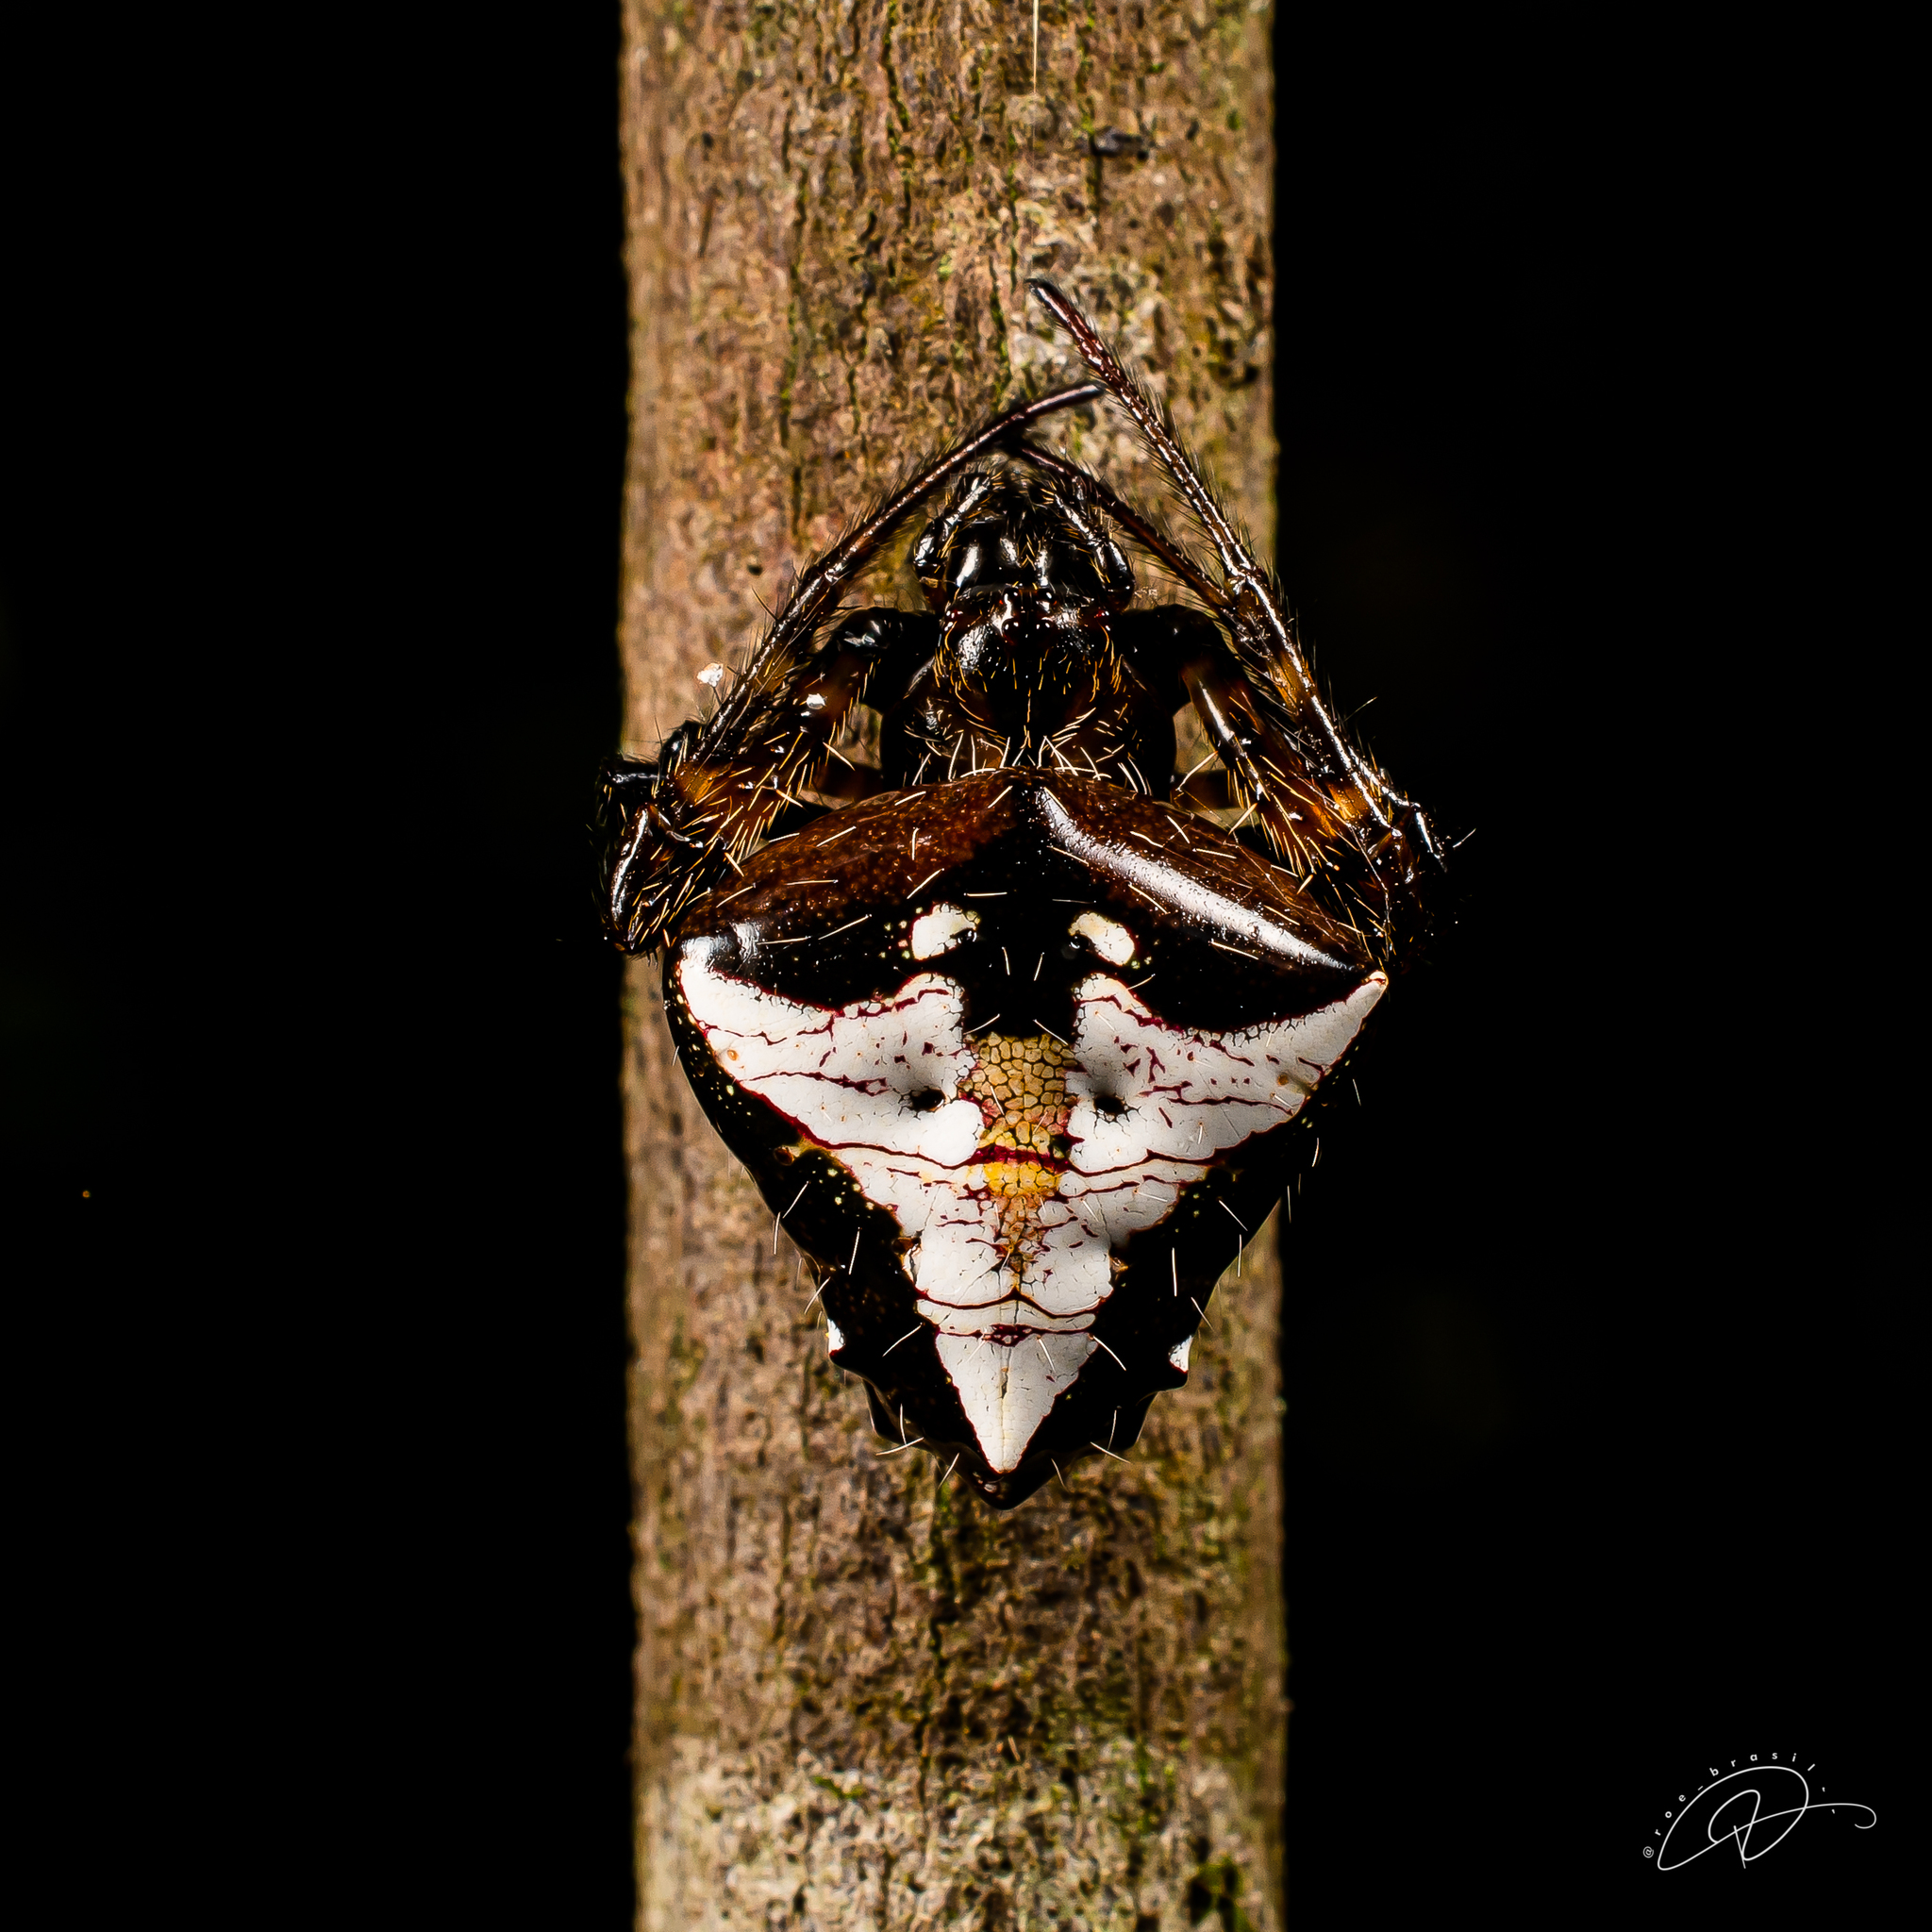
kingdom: Animalia
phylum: Arthropoda
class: Arachnida
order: Araneae
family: Araneidae
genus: Verrucosa
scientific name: Verrucosa scapofracta
